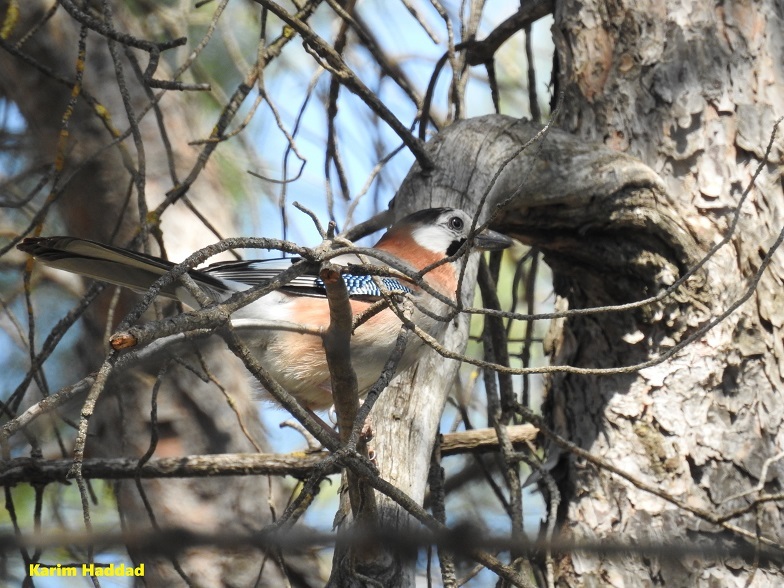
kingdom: Animalia
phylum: Chordata
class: Aves
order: Passeriformes
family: Corvidae
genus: Garrulus
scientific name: Garrulus glandarius
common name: Eurasian jay
